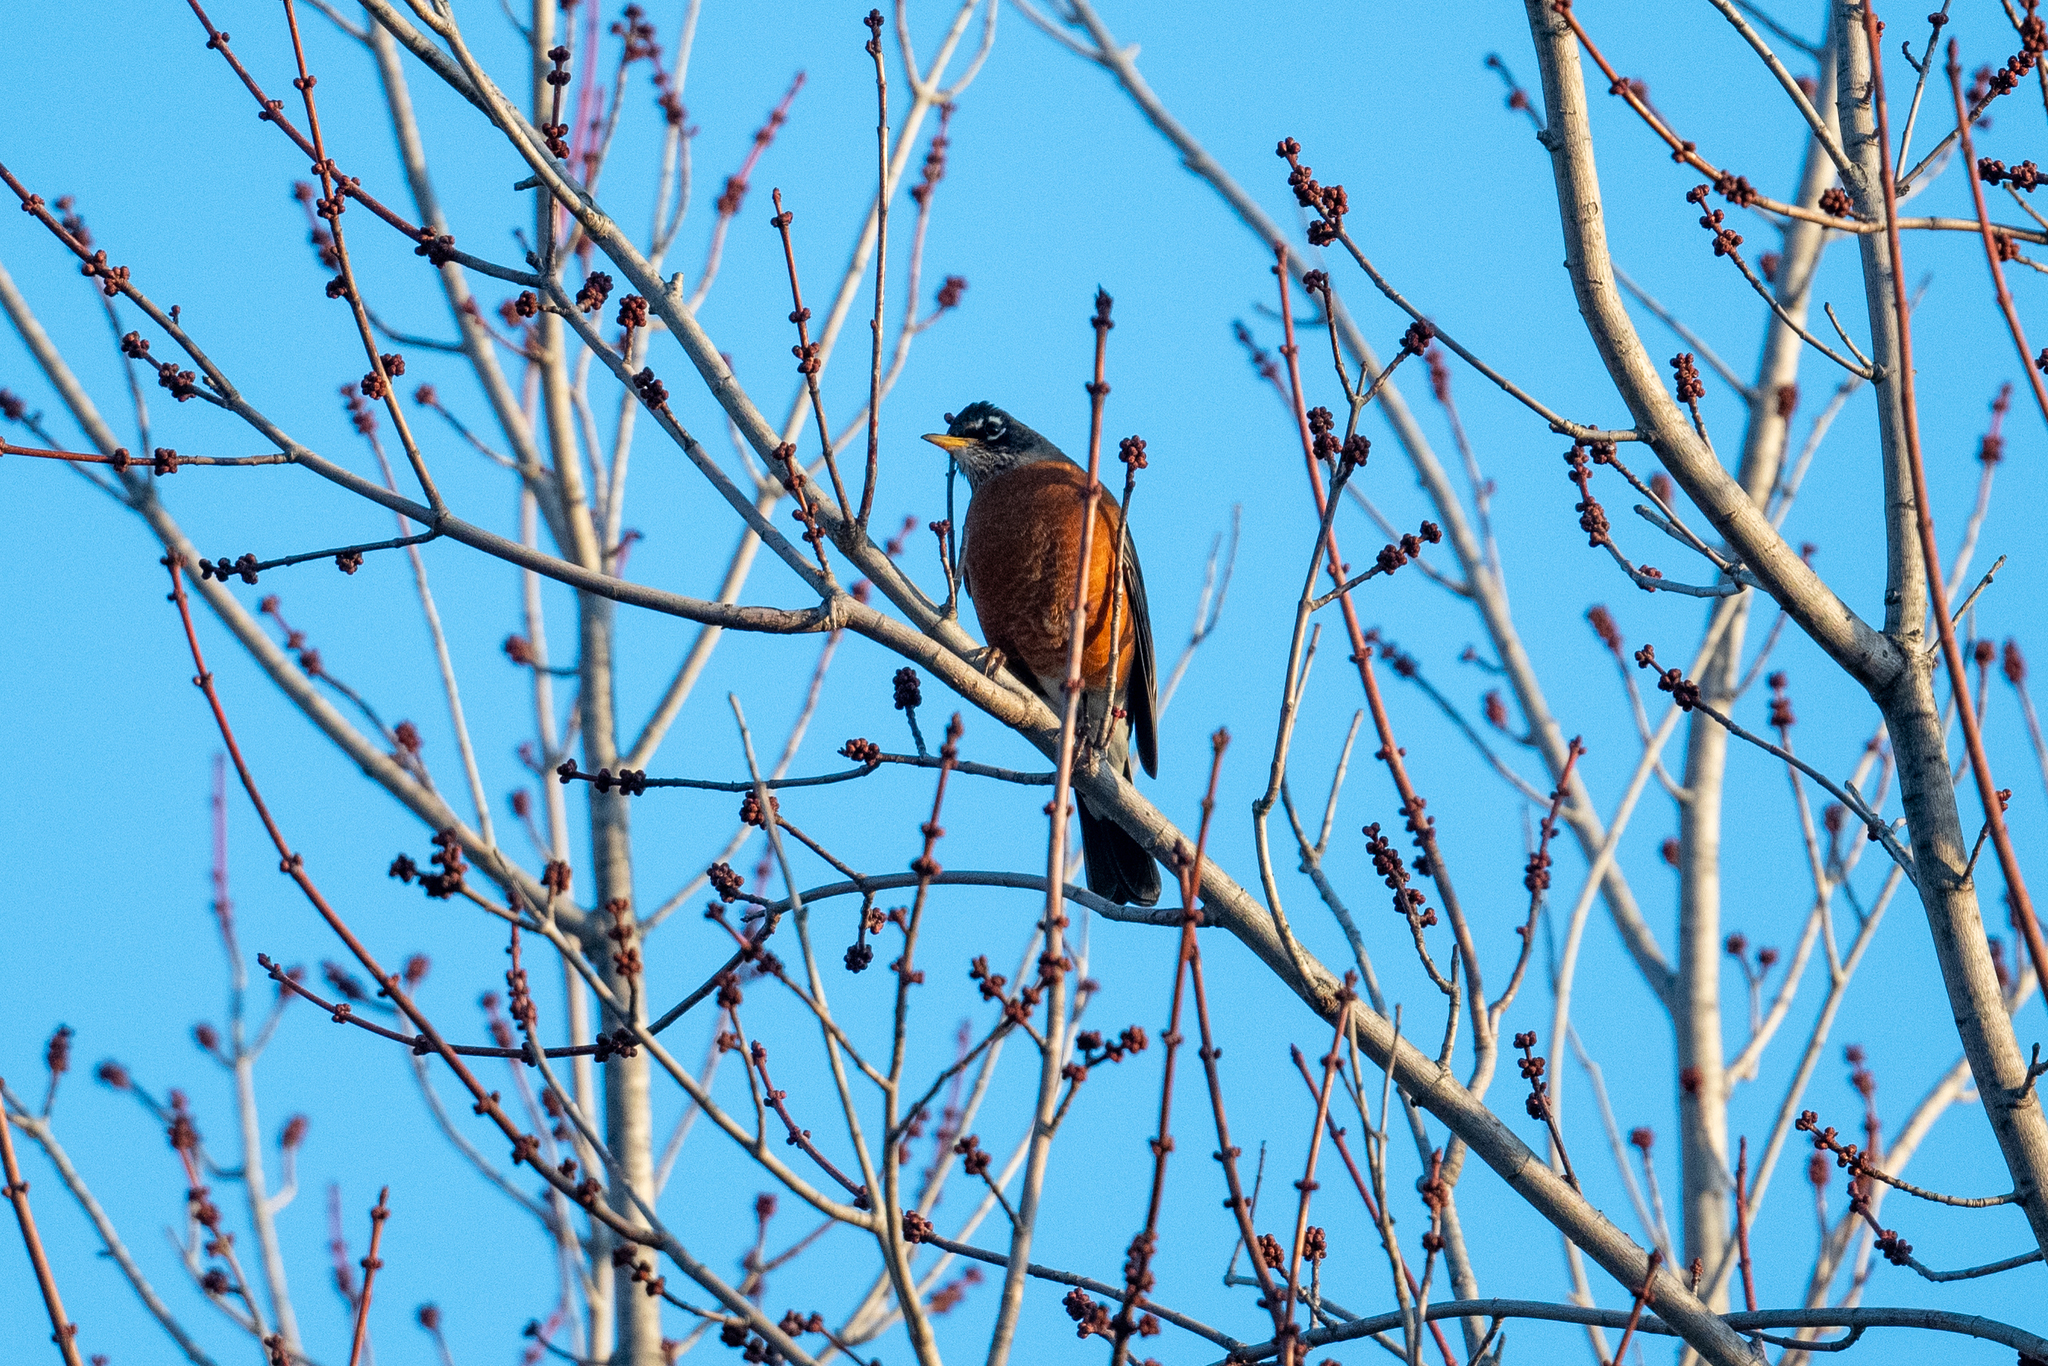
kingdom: Animalia
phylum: Chordata
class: Aves
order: Passeriformes
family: Turdidae
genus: Turdus
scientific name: Turdus migratorius
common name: American robin
